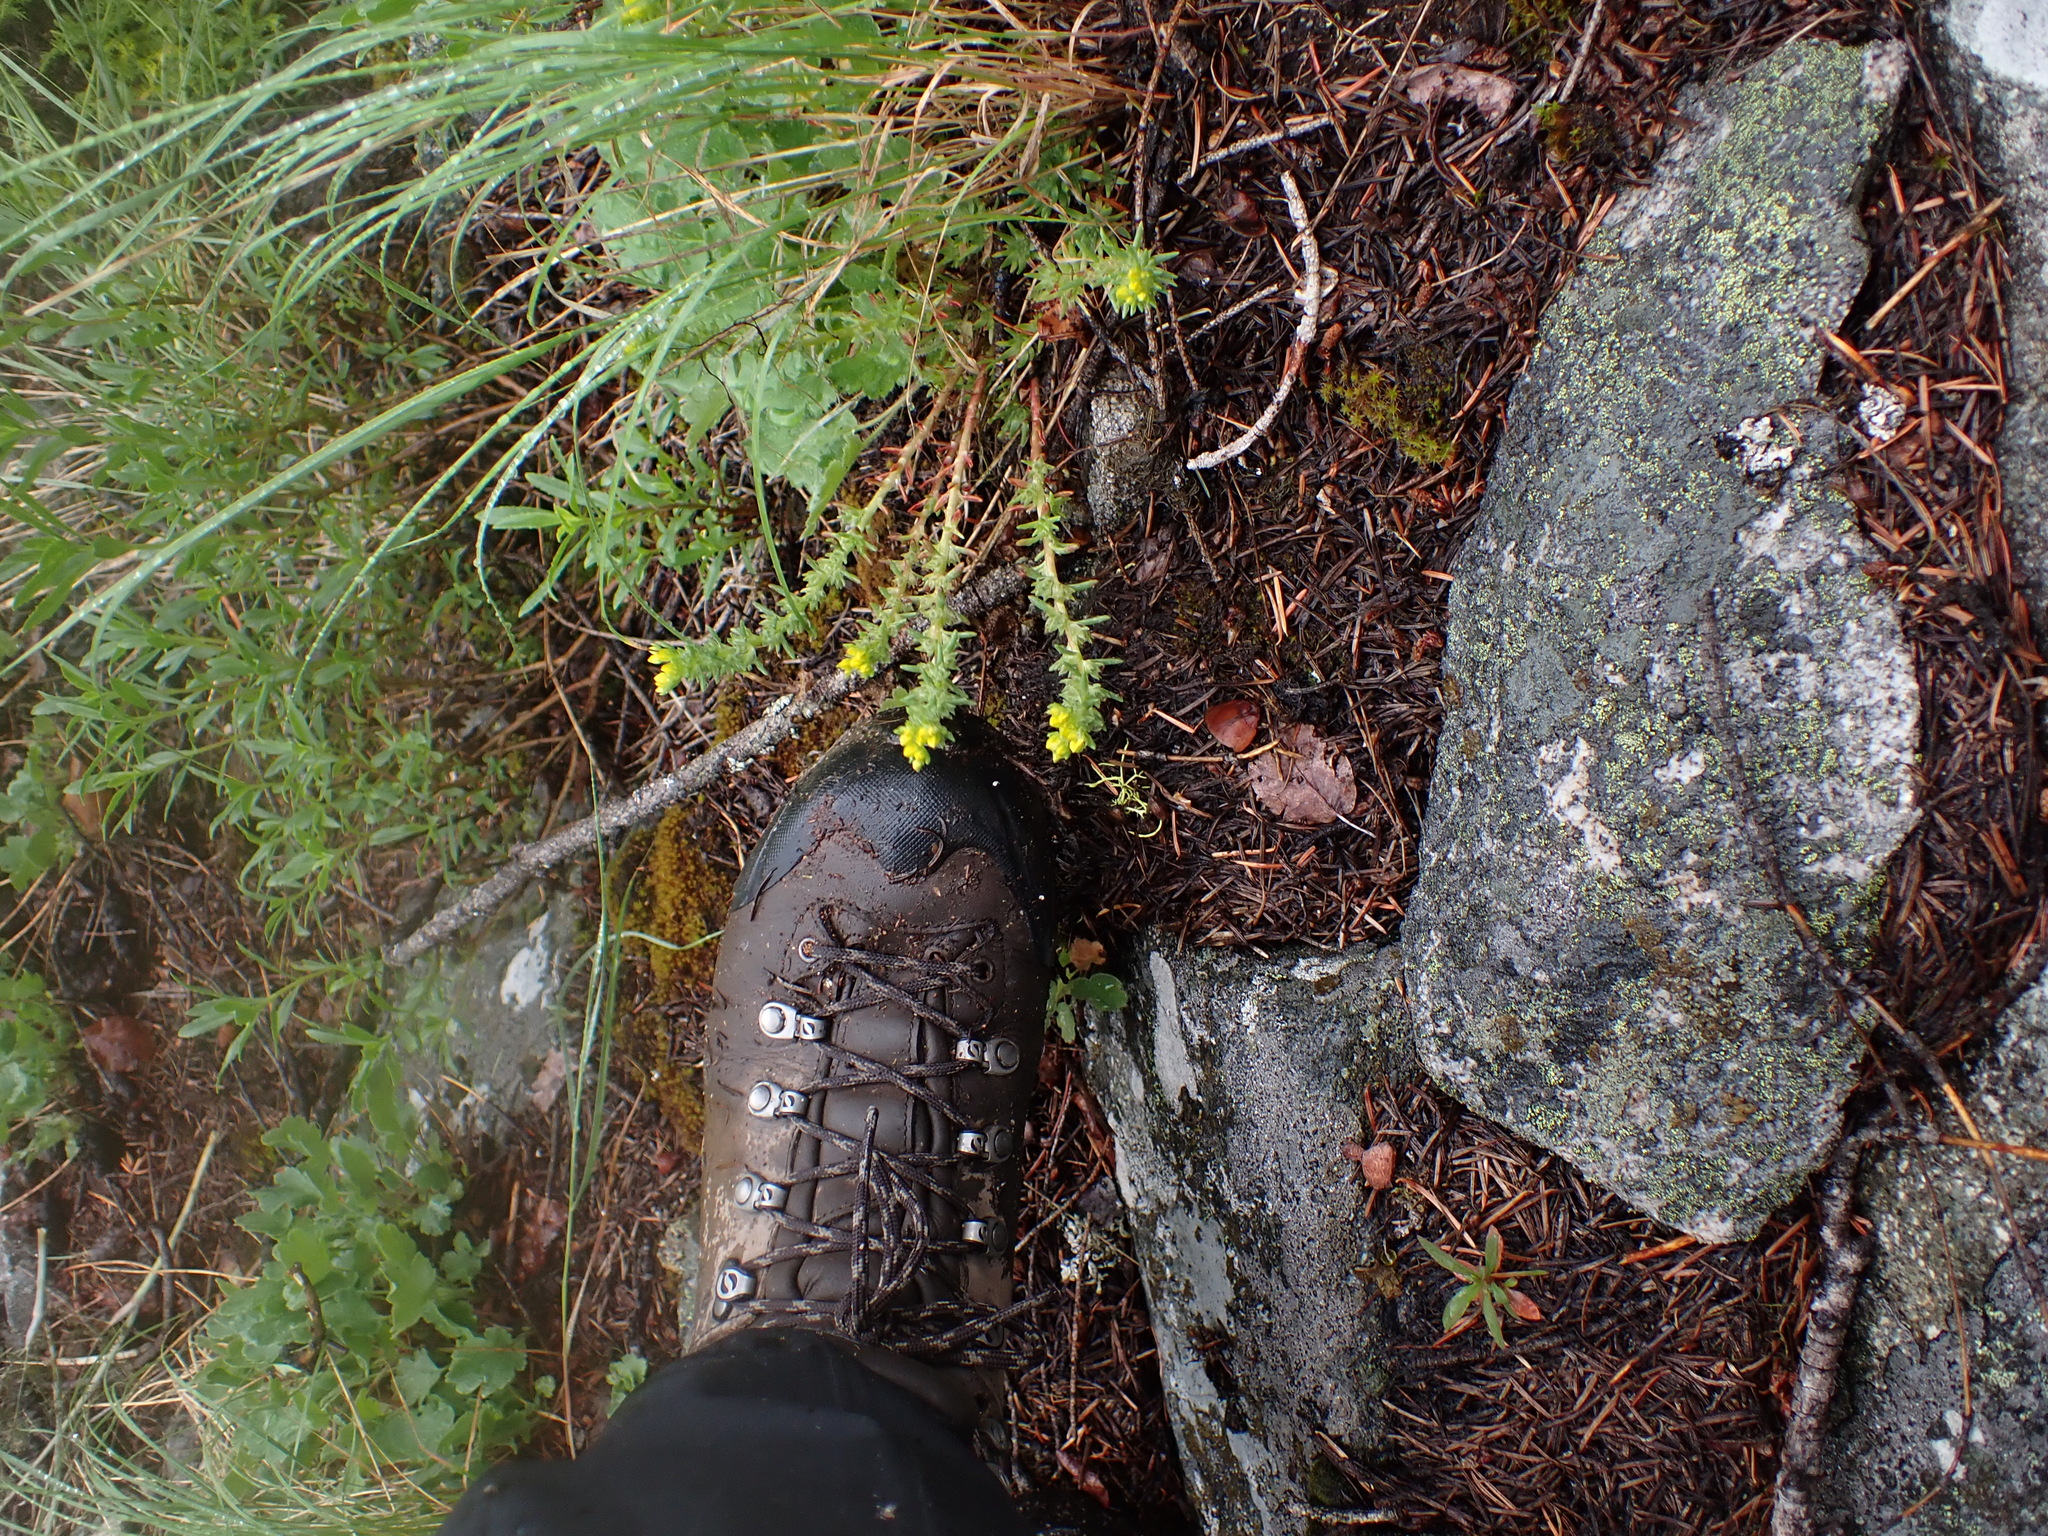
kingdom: Plantae
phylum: Tracheophyta
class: Magnoliopsida
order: Saxifragales
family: Crassulaceae
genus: Sedum
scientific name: Sedum stenopetalum
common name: Narrow-petaled stonecrop
